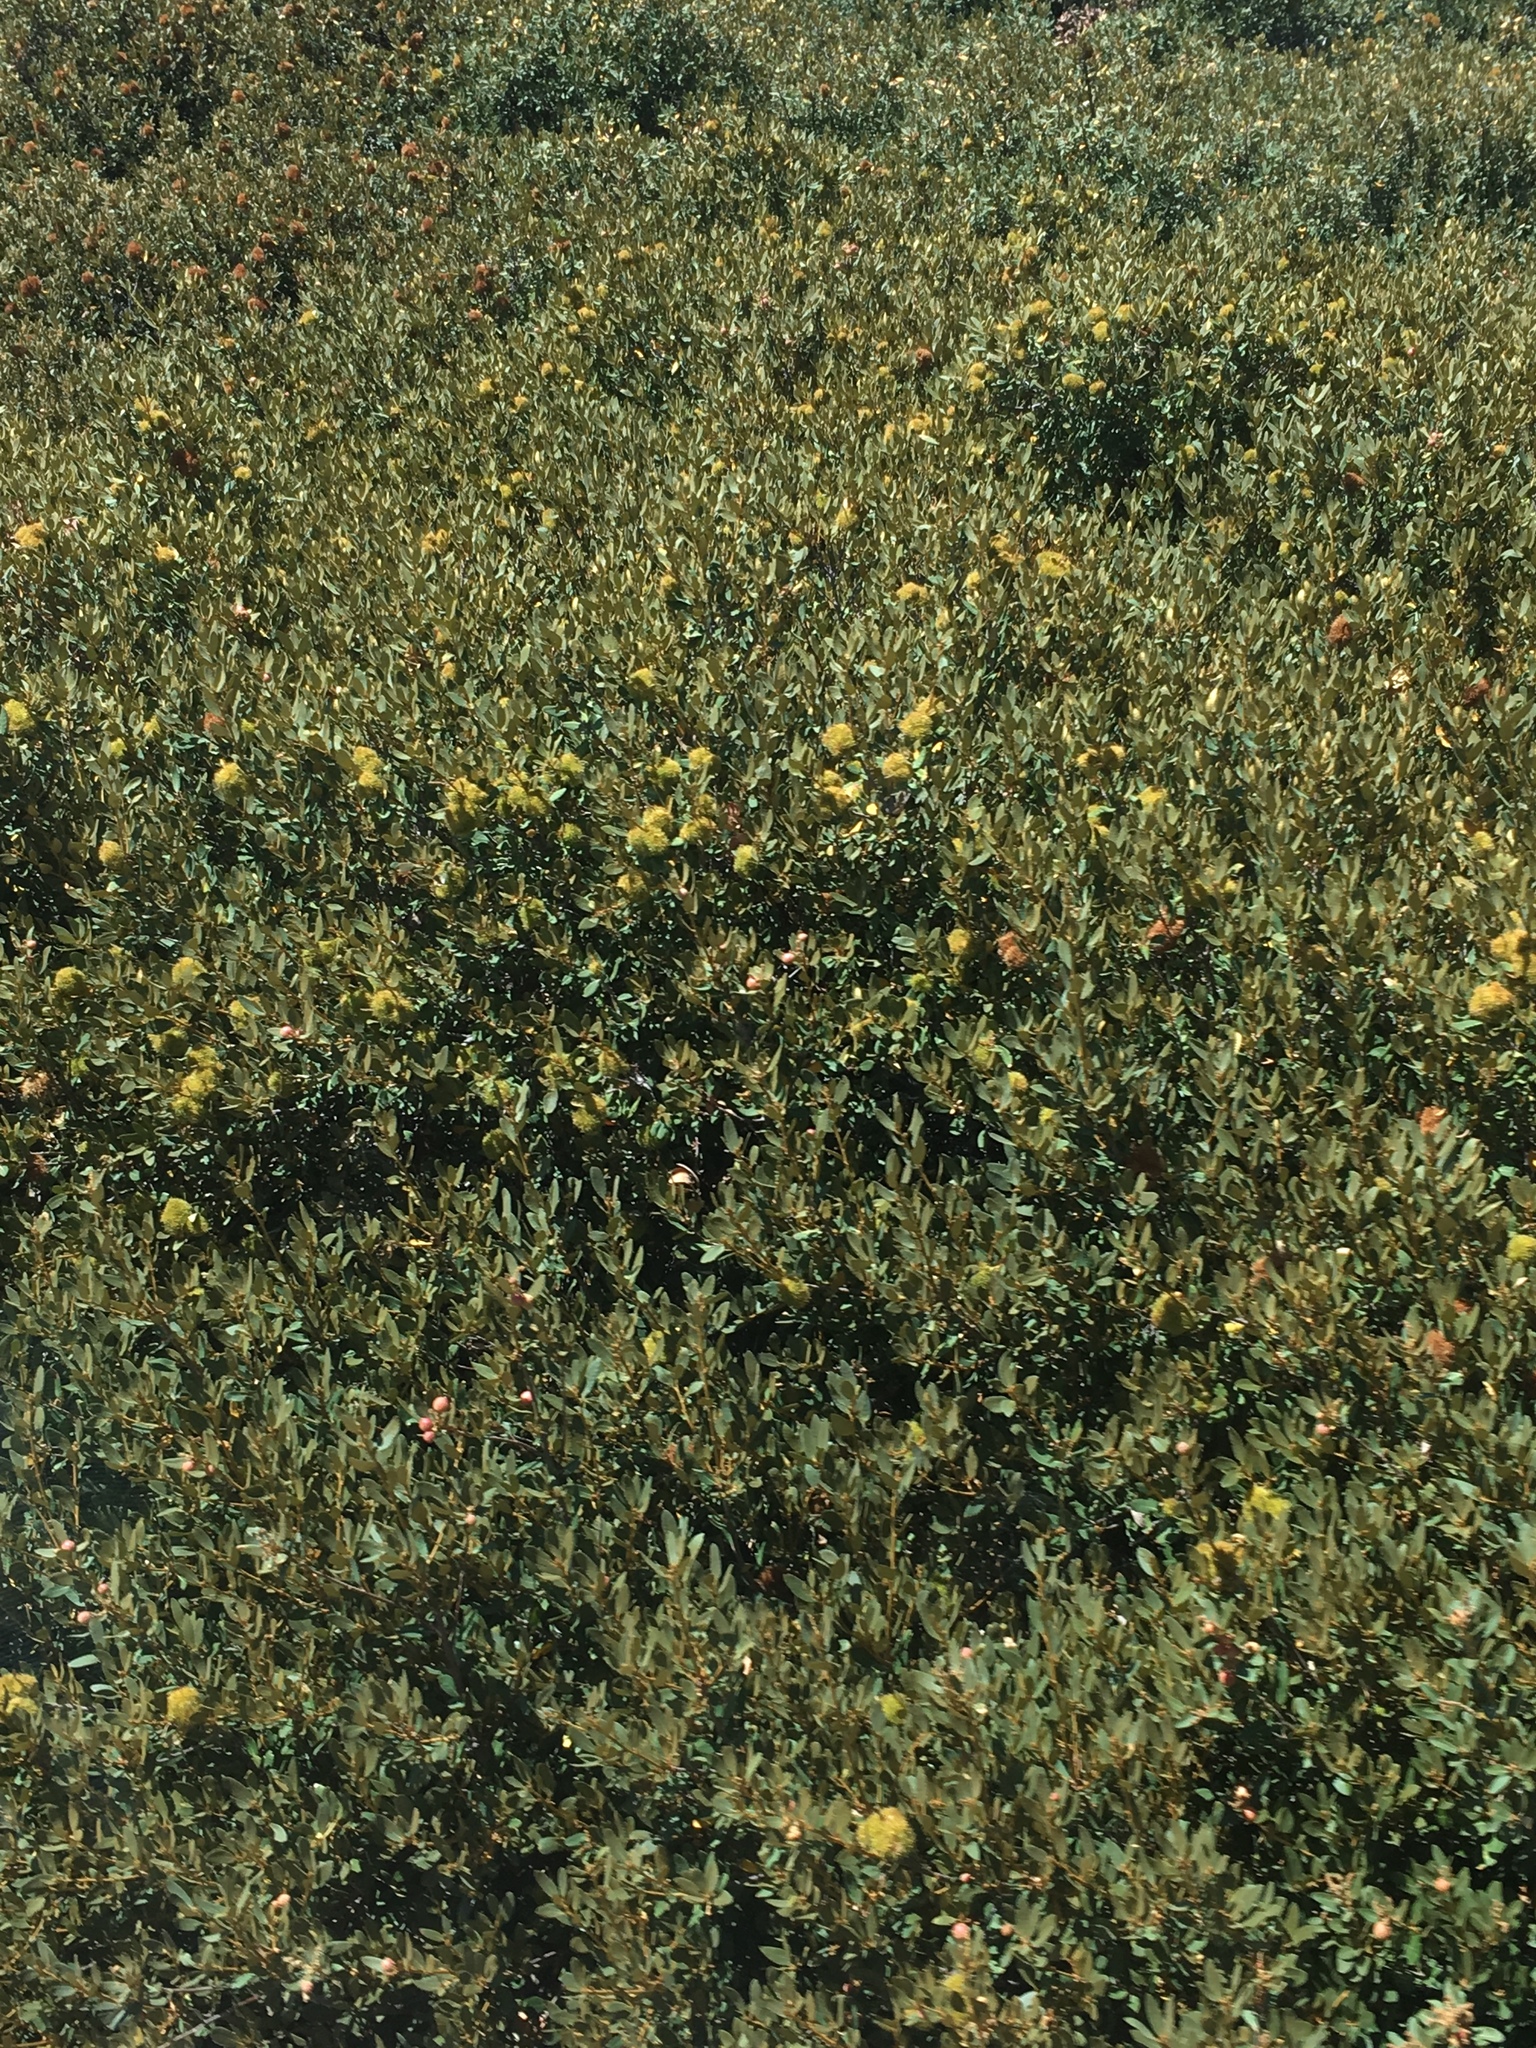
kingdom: Plantae
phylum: Tracheophyta
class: Magnoliopsida
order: Fagales
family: Fagaceae
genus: Chrysolepis
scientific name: Chrysolepis sempervirens
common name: Bush chinquapin
